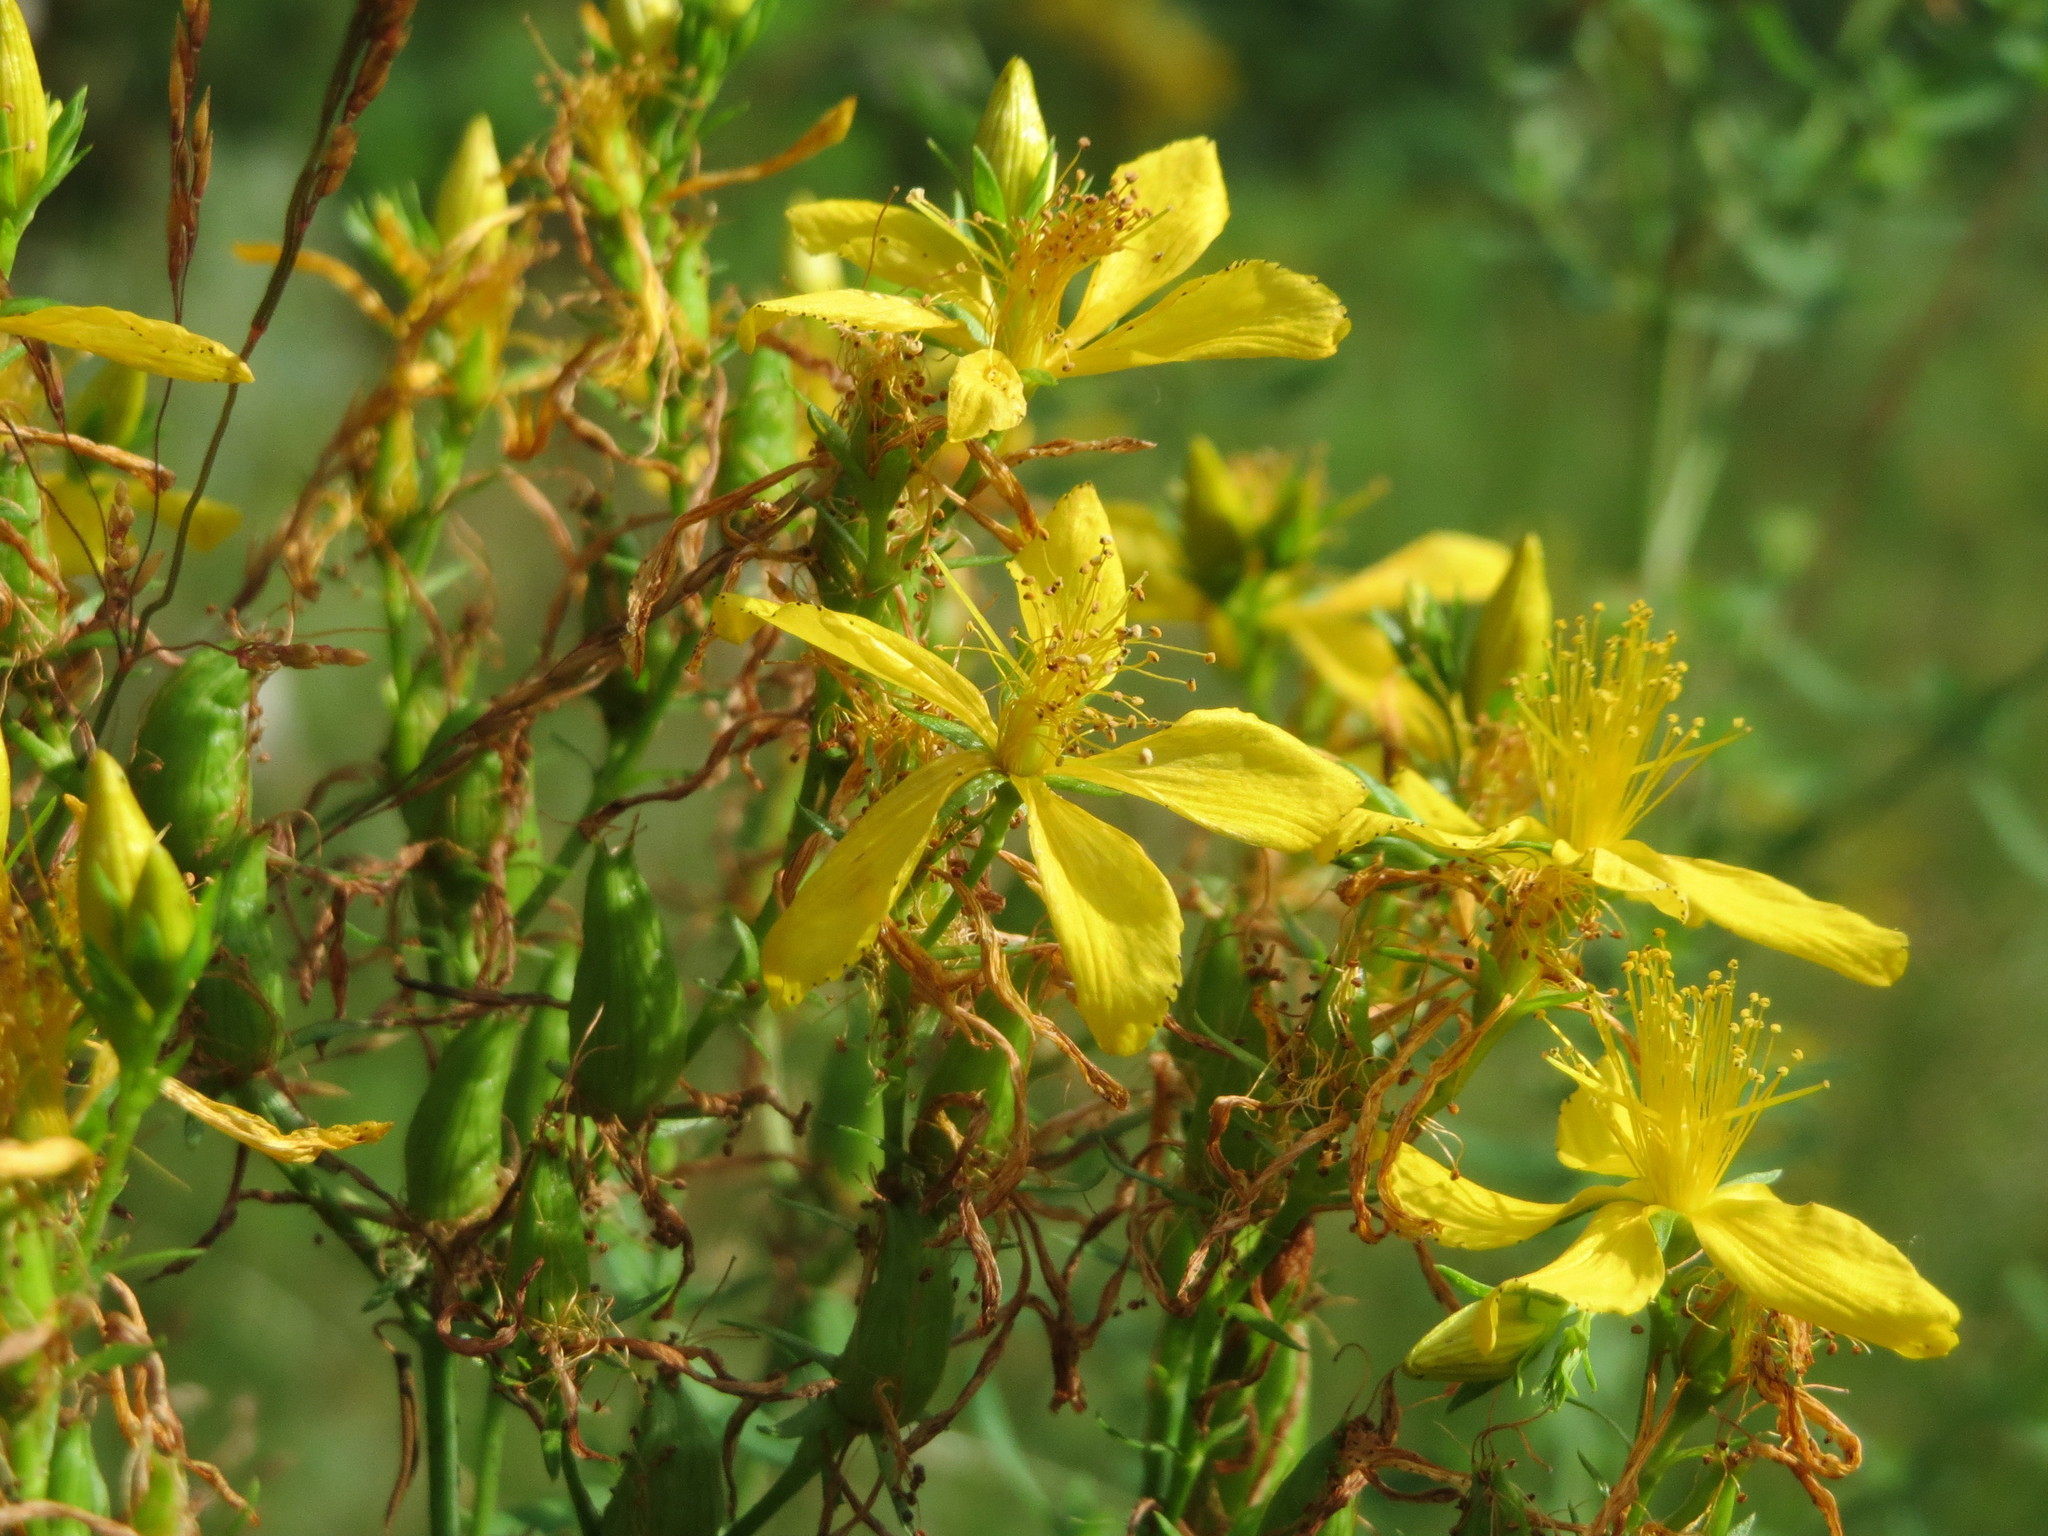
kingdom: Plantae
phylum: Tracheophyta
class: Magnoliopsida
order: Malpighiales
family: Hypericaceae
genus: Hypericum
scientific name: Hypericum perforatum
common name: Common st. johnswort
